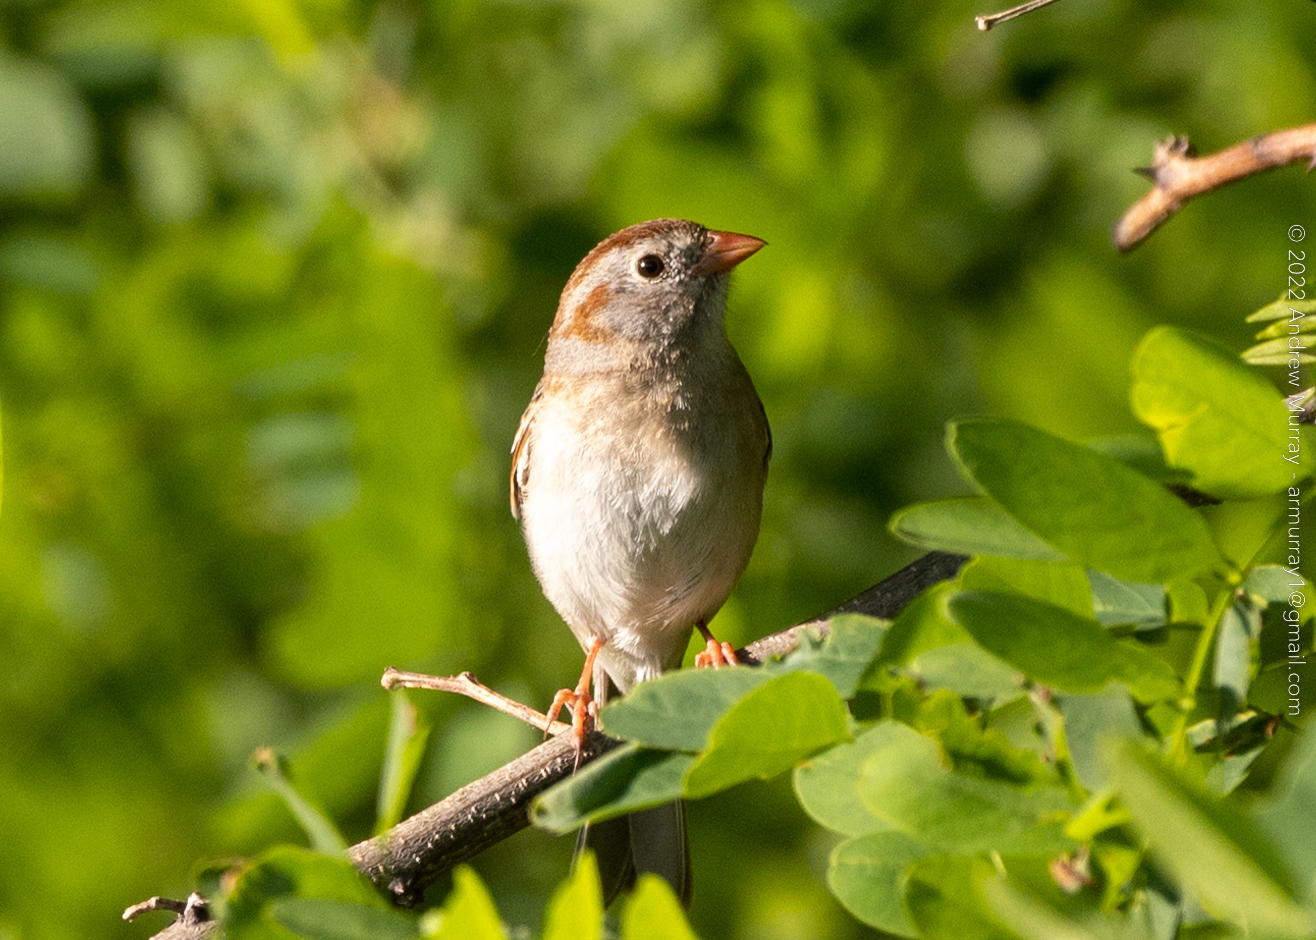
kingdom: Animalia
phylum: Chordata
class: Aves
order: Passeriformes
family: Passerellidae
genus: Spizella
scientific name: Spizella pusilla
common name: Field sparrow
